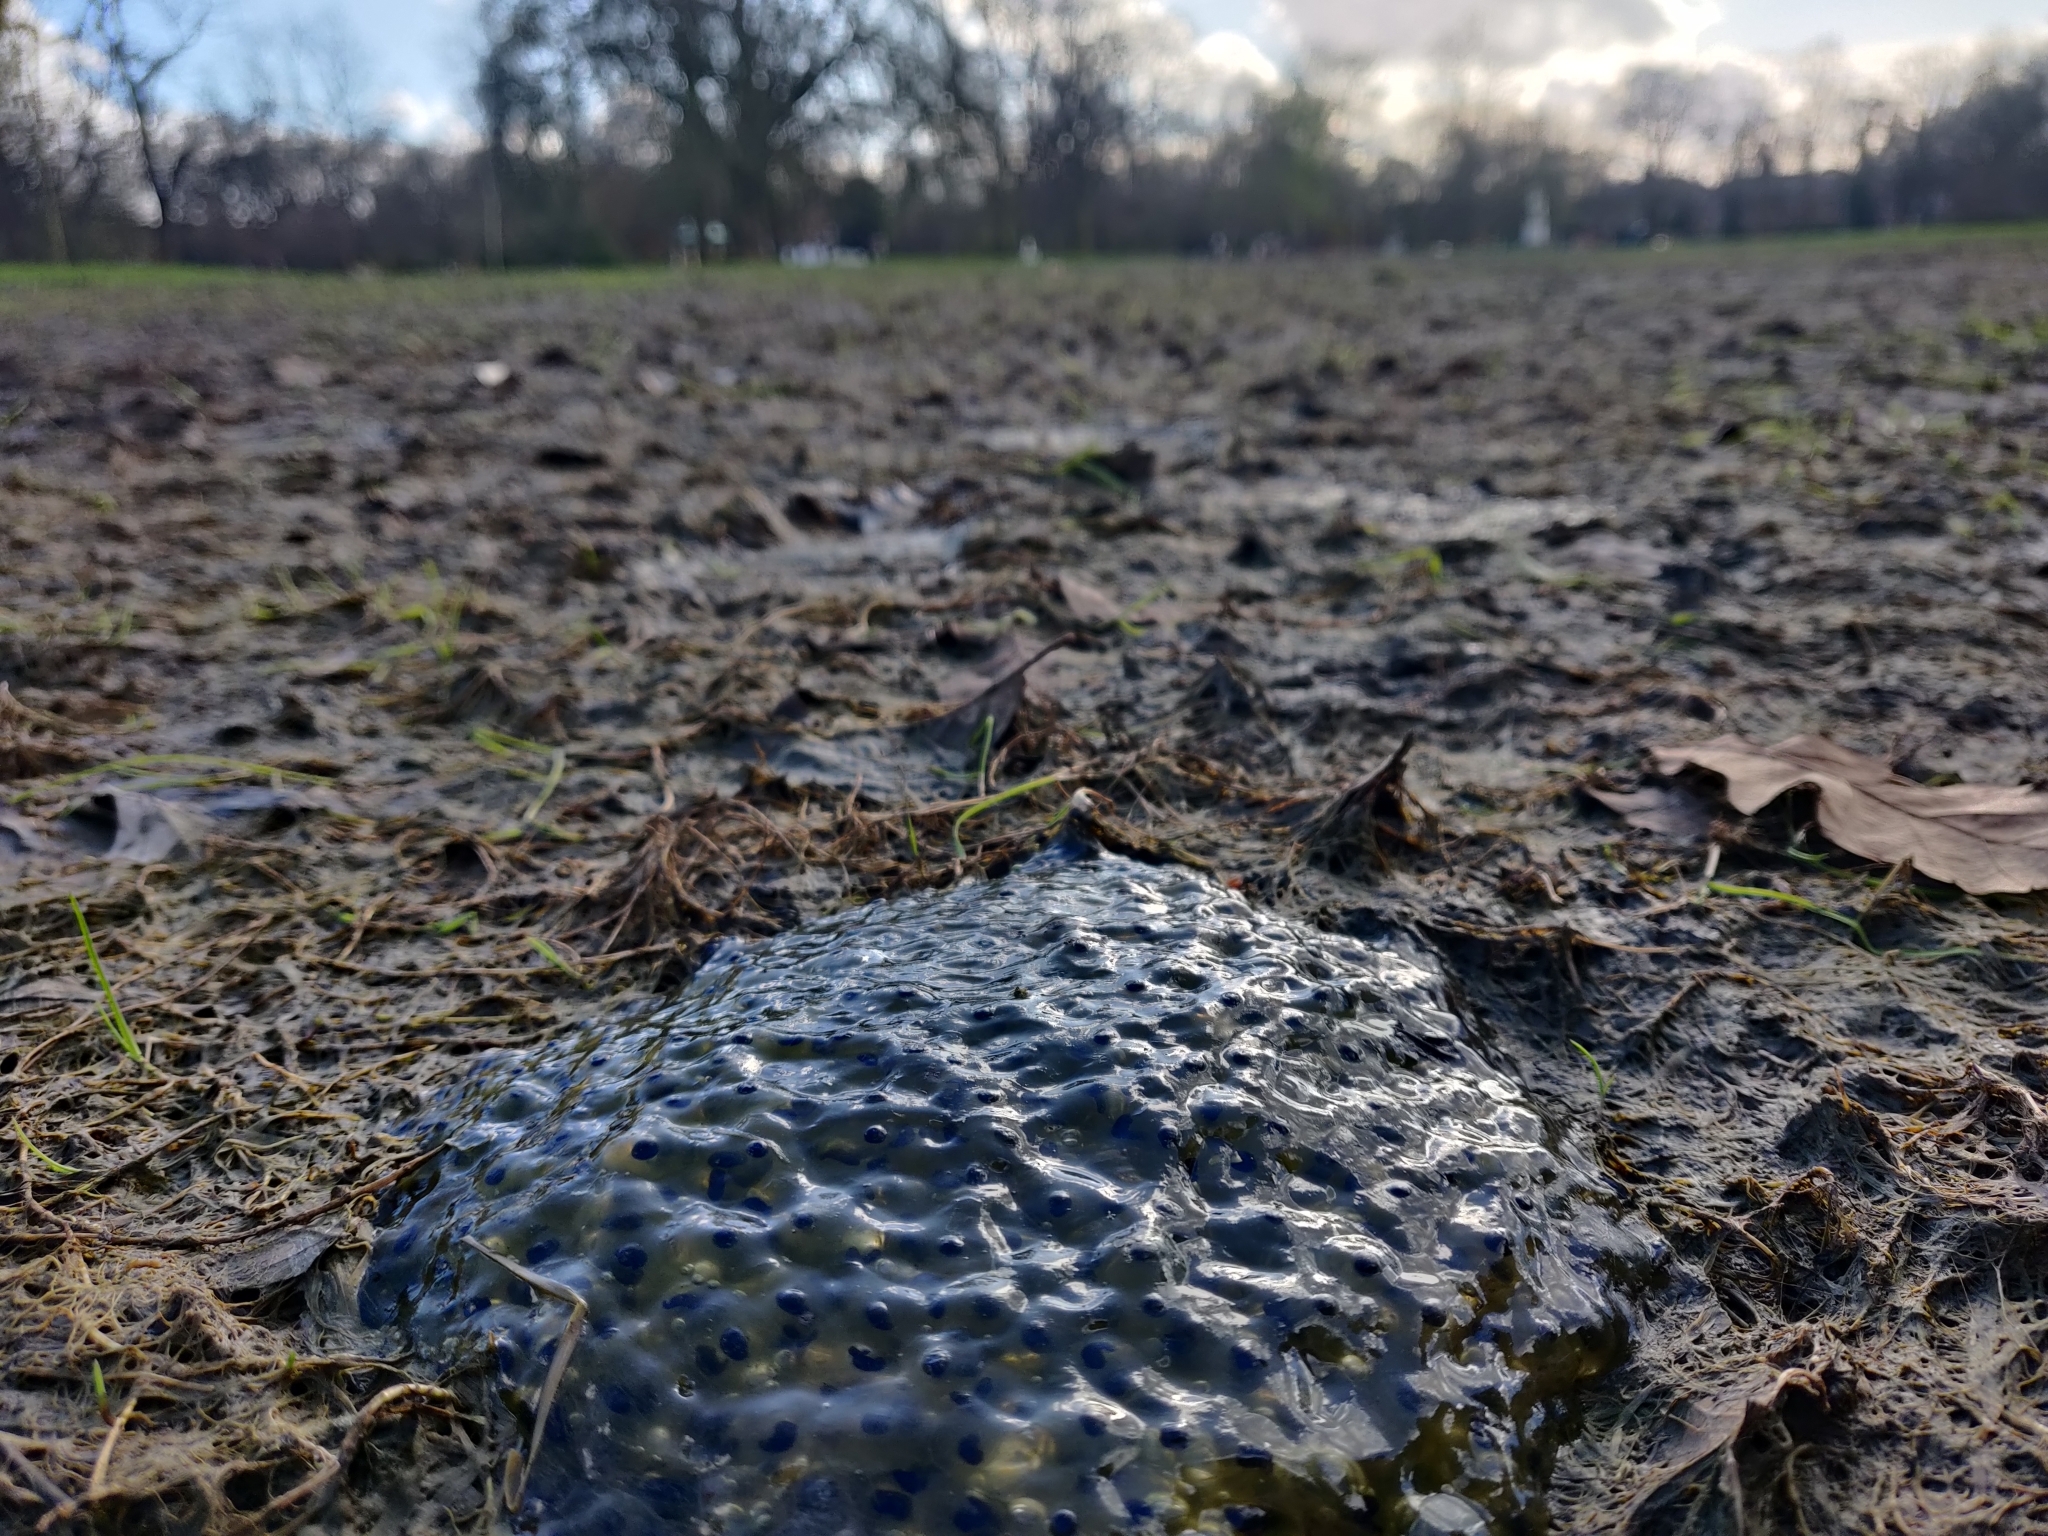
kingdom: Animalia
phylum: Chordata
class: Amphibia
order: Anura
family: Ranidae
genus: Rana
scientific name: Rana temporaria
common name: Common frog
